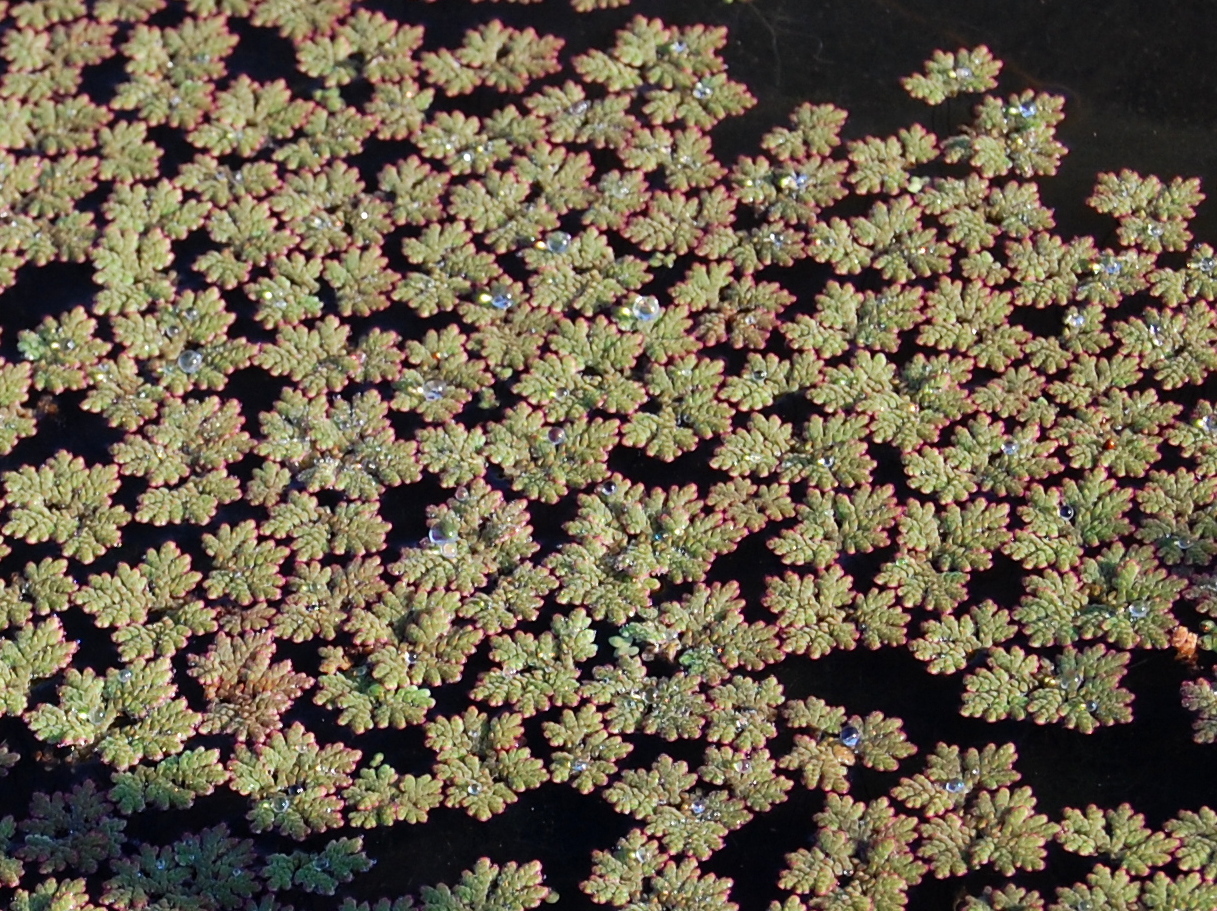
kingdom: Plantae
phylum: Tracheophyta
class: Polypodiopsida
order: Salviniales
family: Salviniaceae
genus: Azolla
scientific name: Azolla filiculoides
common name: Water fern
